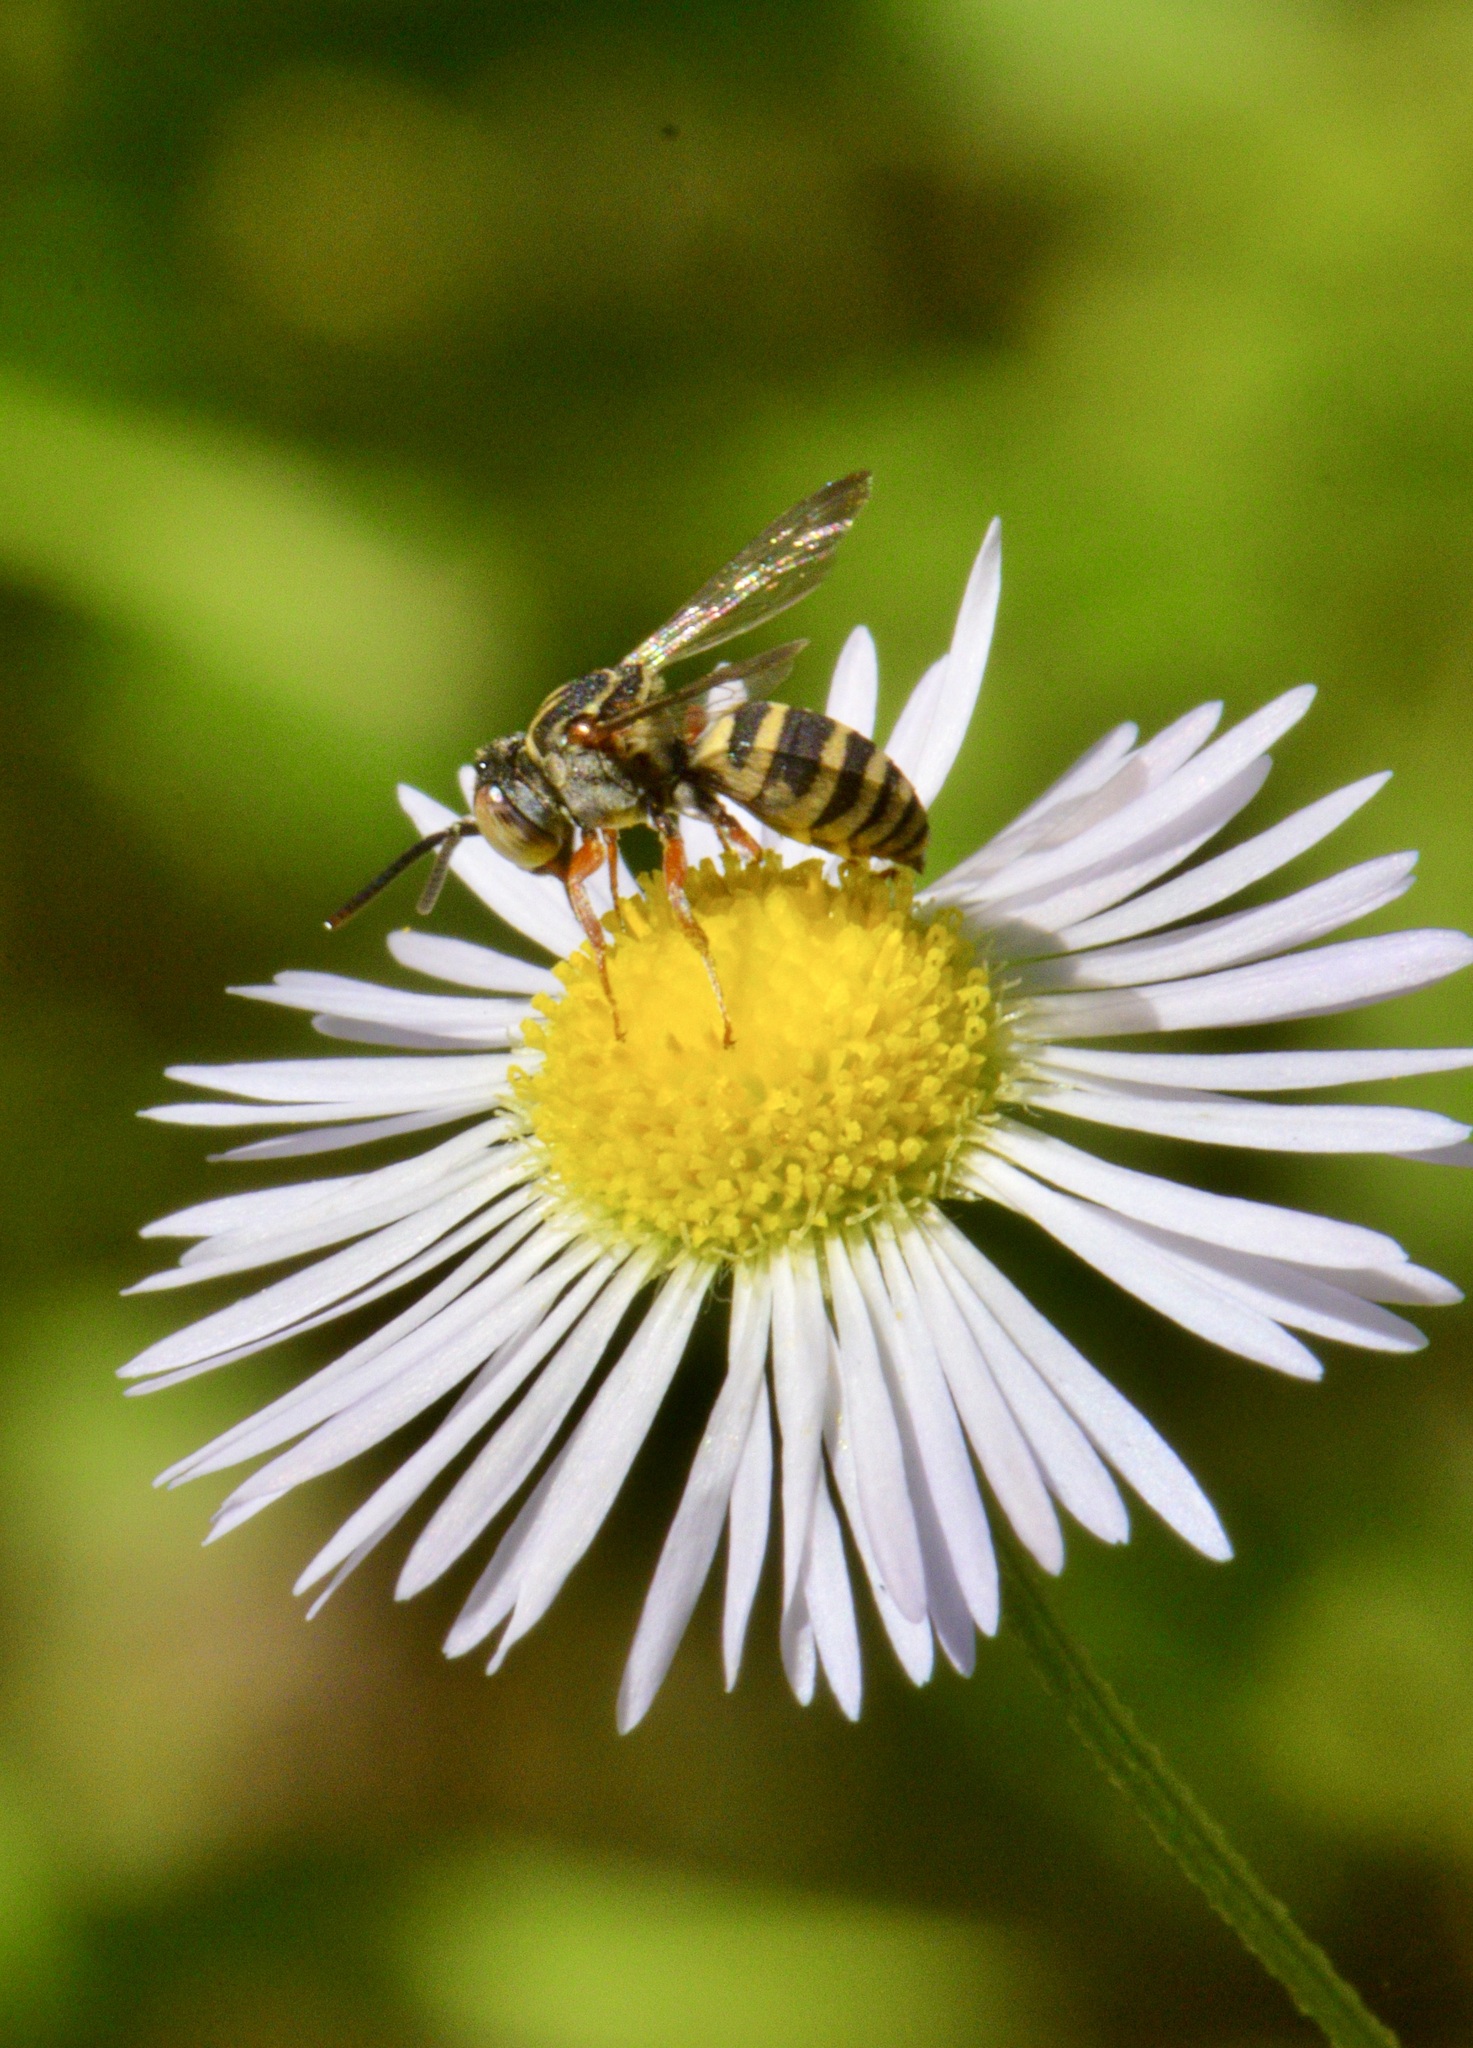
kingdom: Animalia
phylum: Arthropoda
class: Insecta
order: Hymenoptera
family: Apidae
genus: Epeolus
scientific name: Epeolus pusillus
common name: Dwarf cellophane-cuckoo bee
